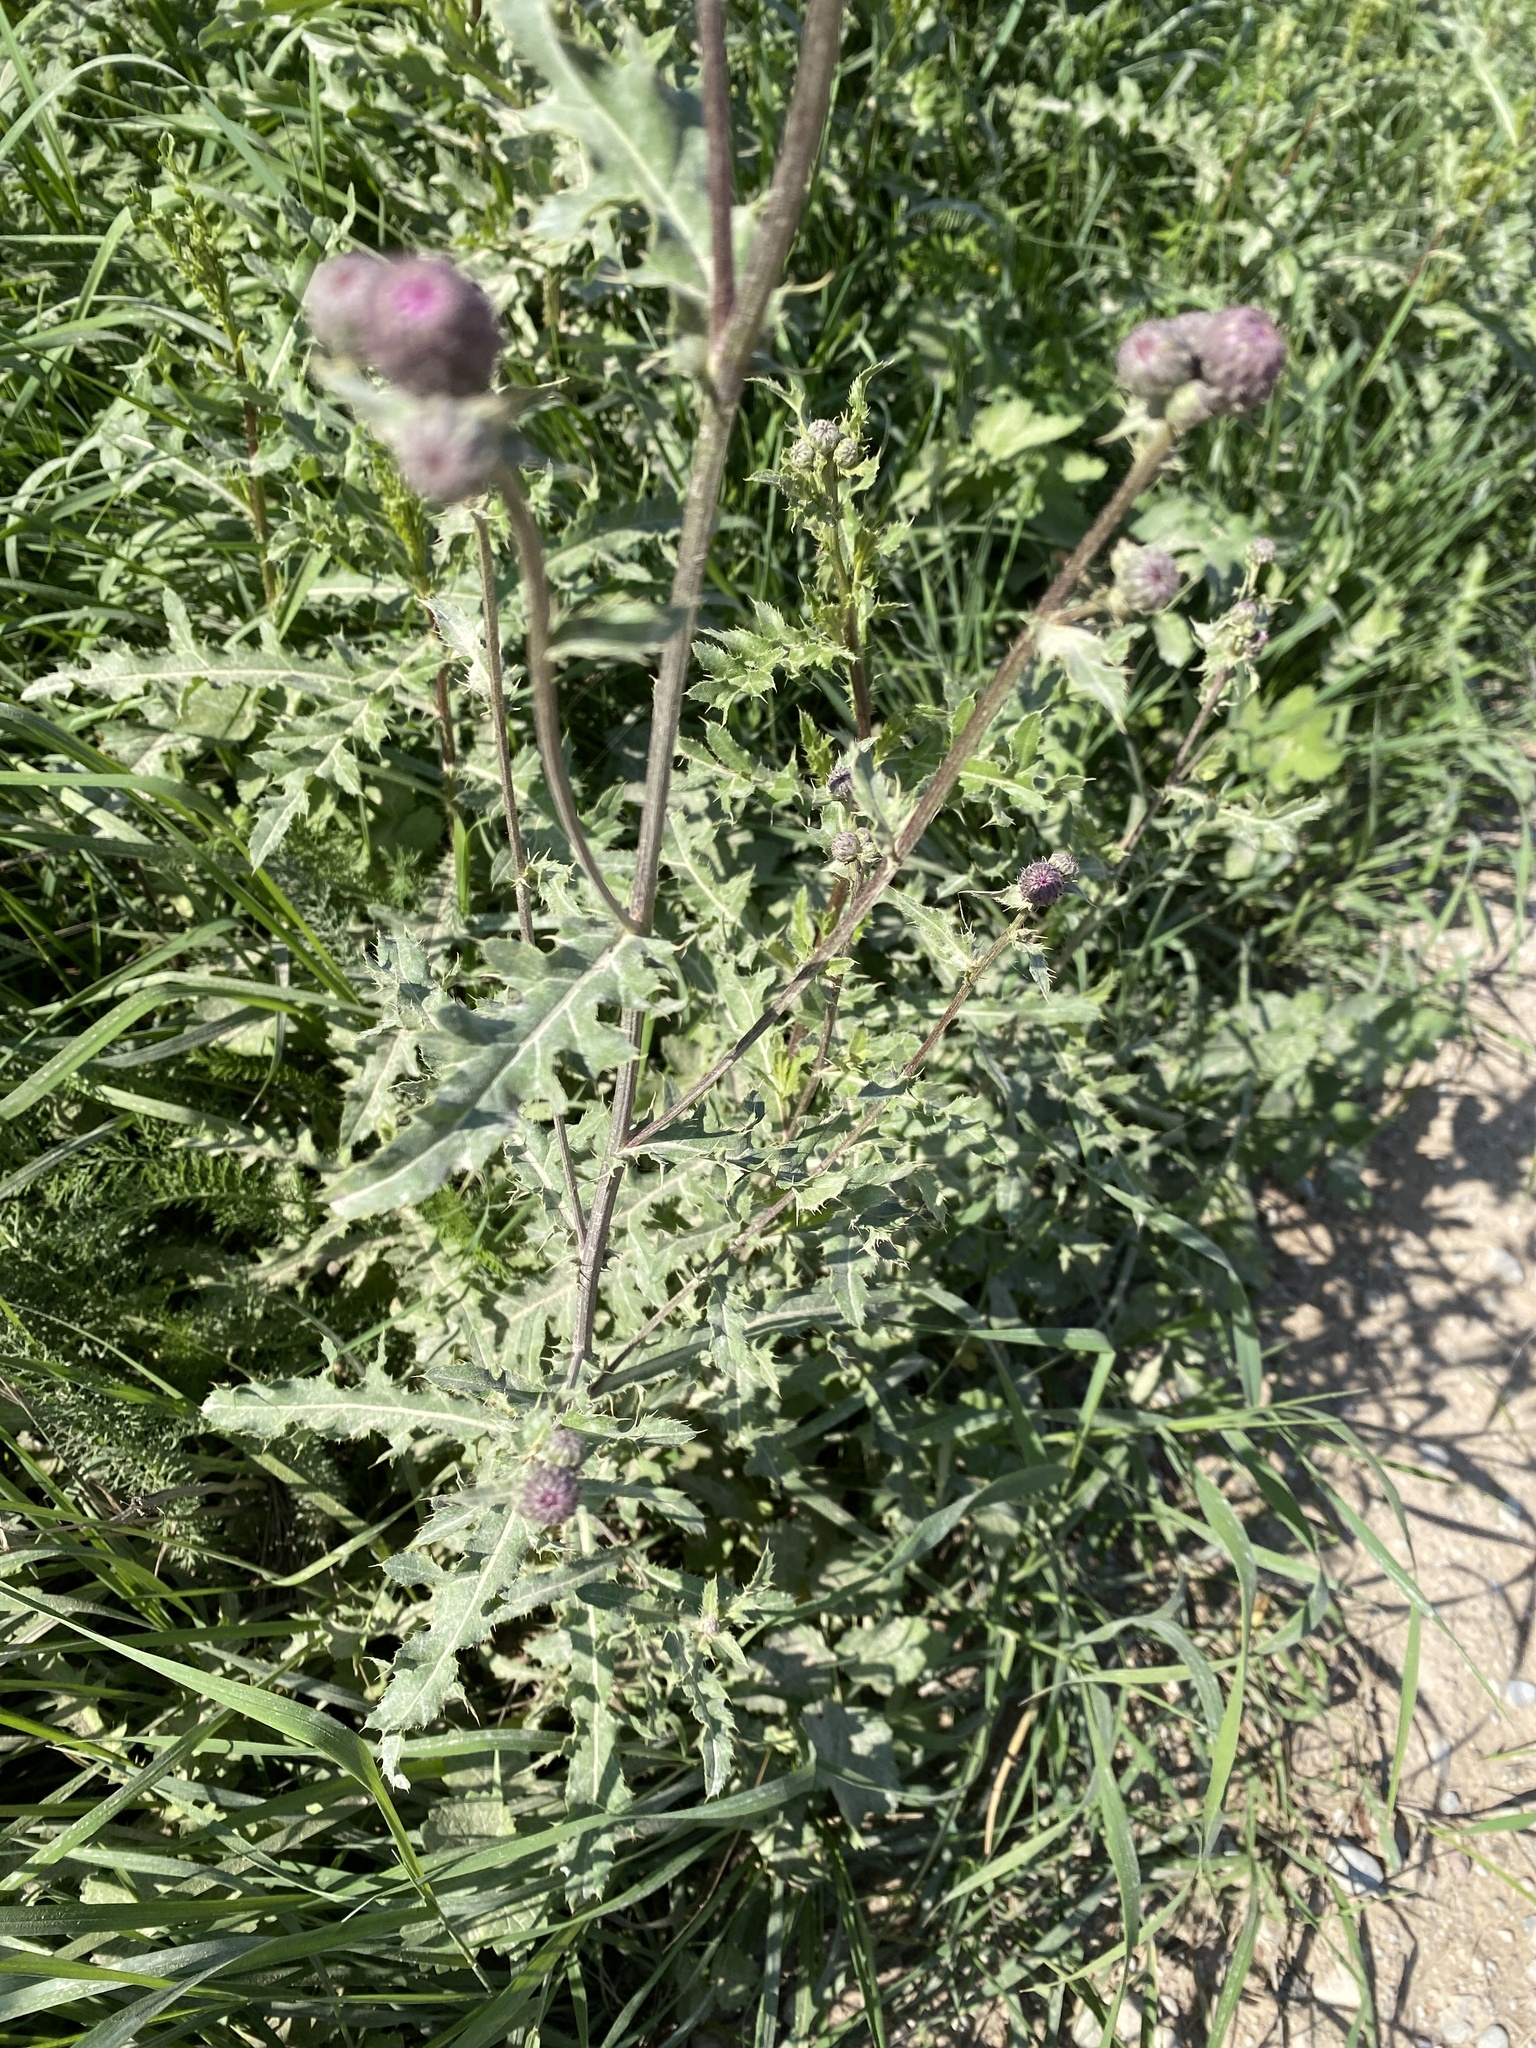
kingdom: Plantae
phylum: Tracheophyta
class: Magnoliopsida
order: Asterales
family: Asteraceae
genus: Cirsium
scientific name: Cirsium arvense
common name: Creeping thistle
